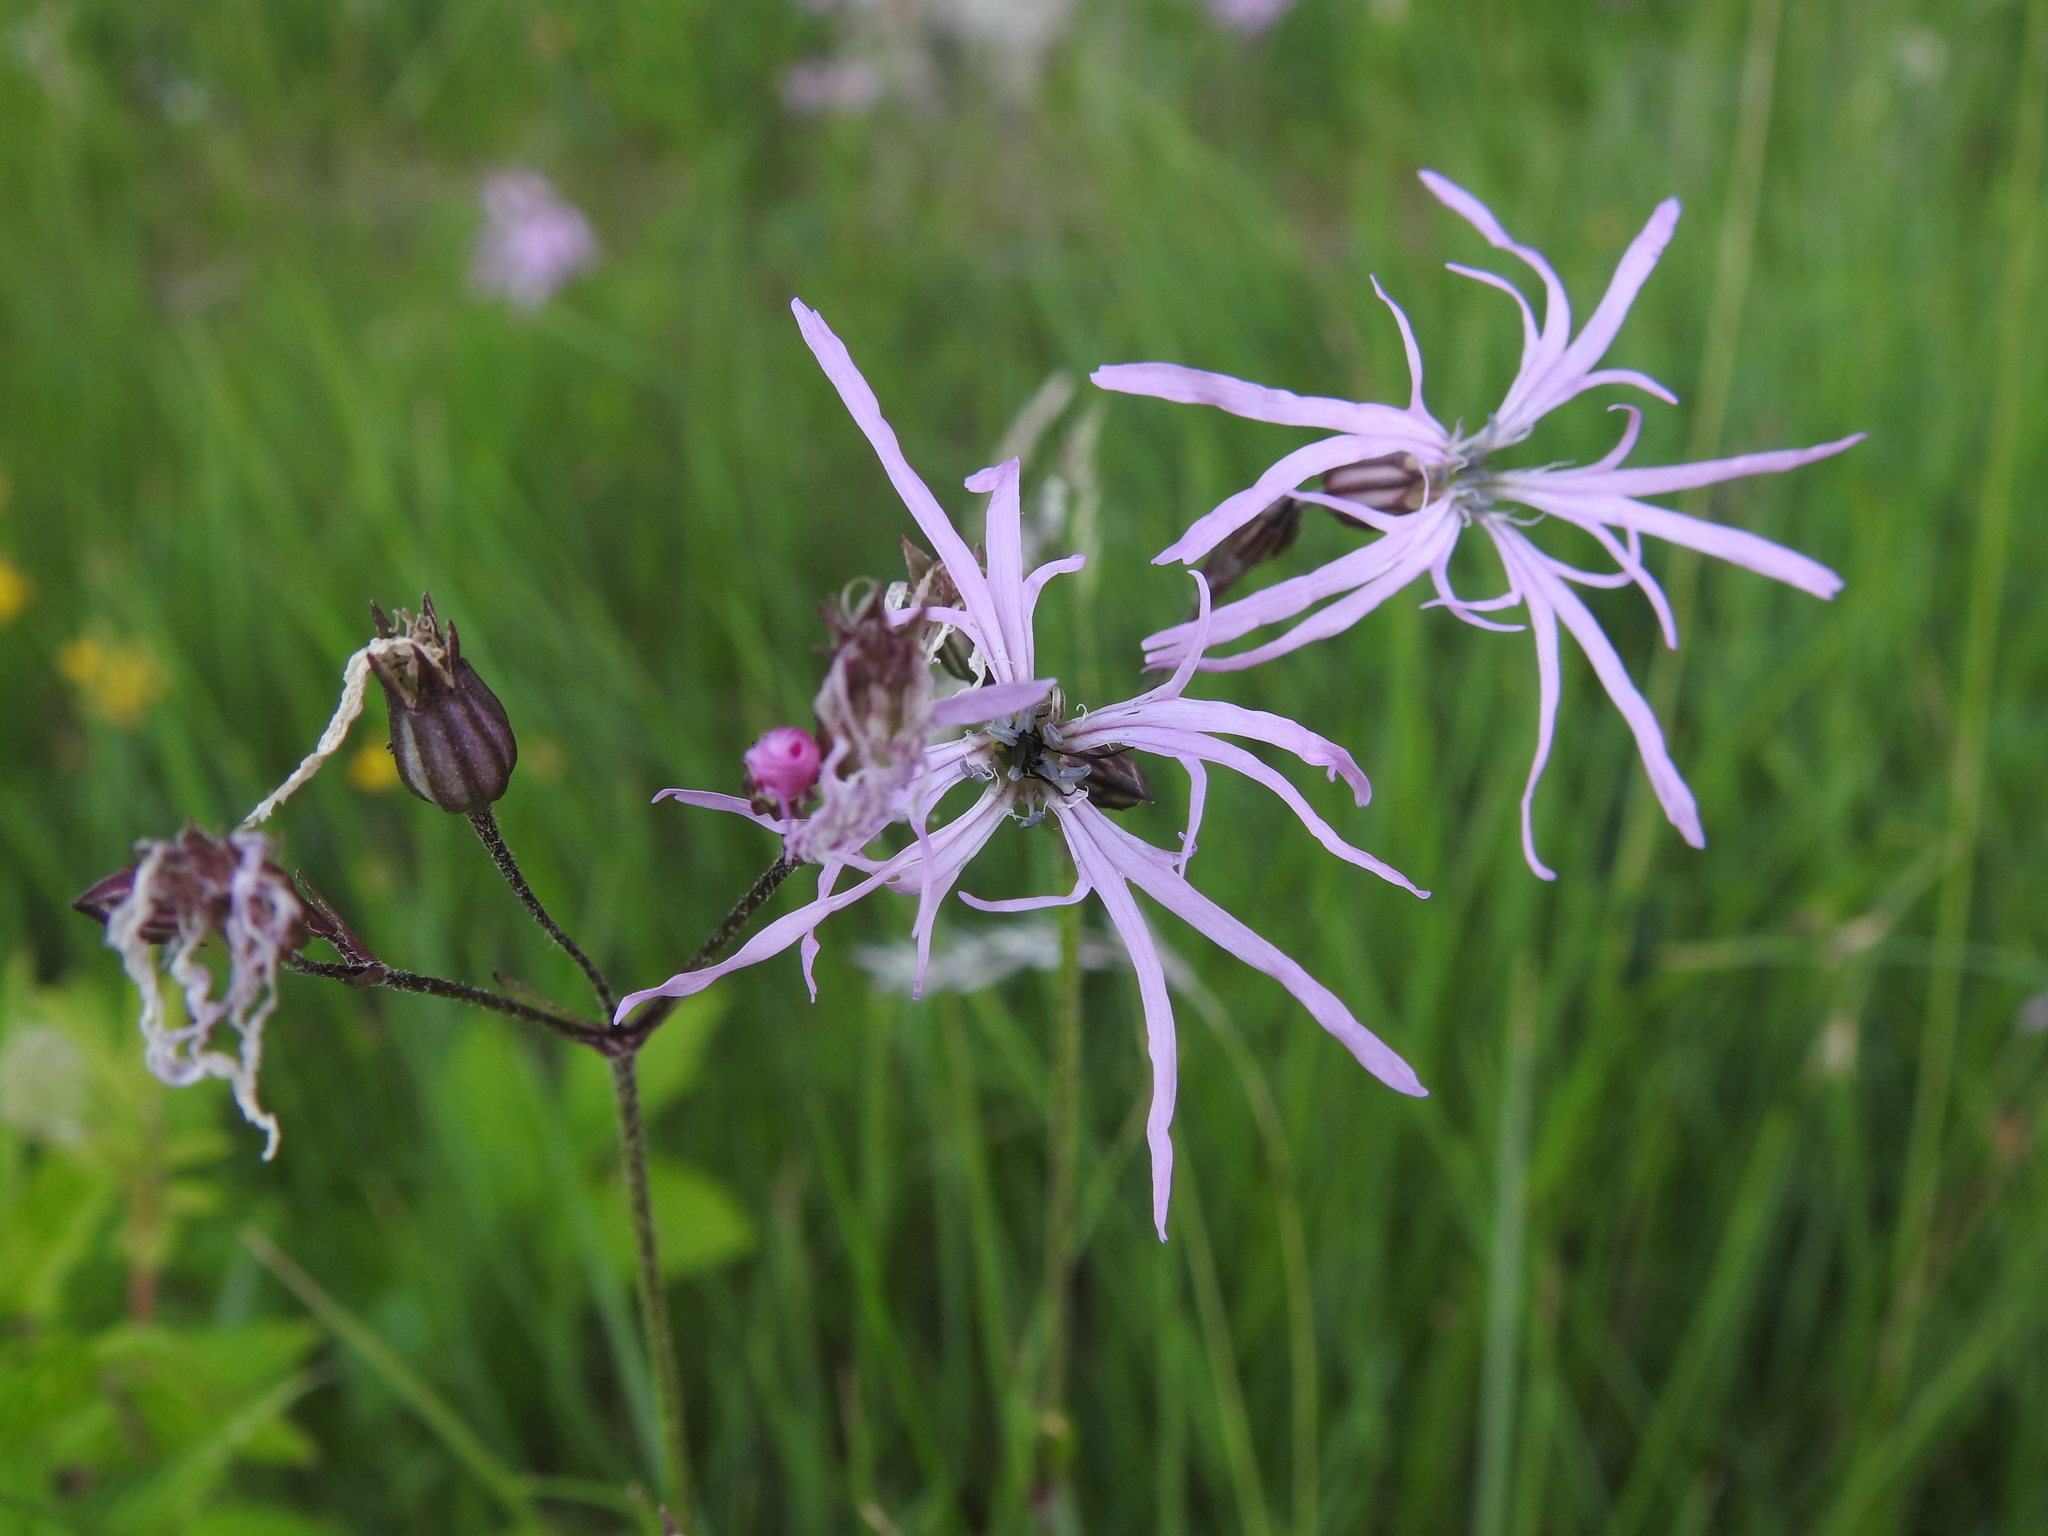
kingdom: Plantae
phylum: Tracheophyta
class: Magnoliopsida
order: Caryophyllales
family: Caryophyllaceae
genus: Silene
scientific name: Silene flos-cuculi
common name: Ragged-robin
